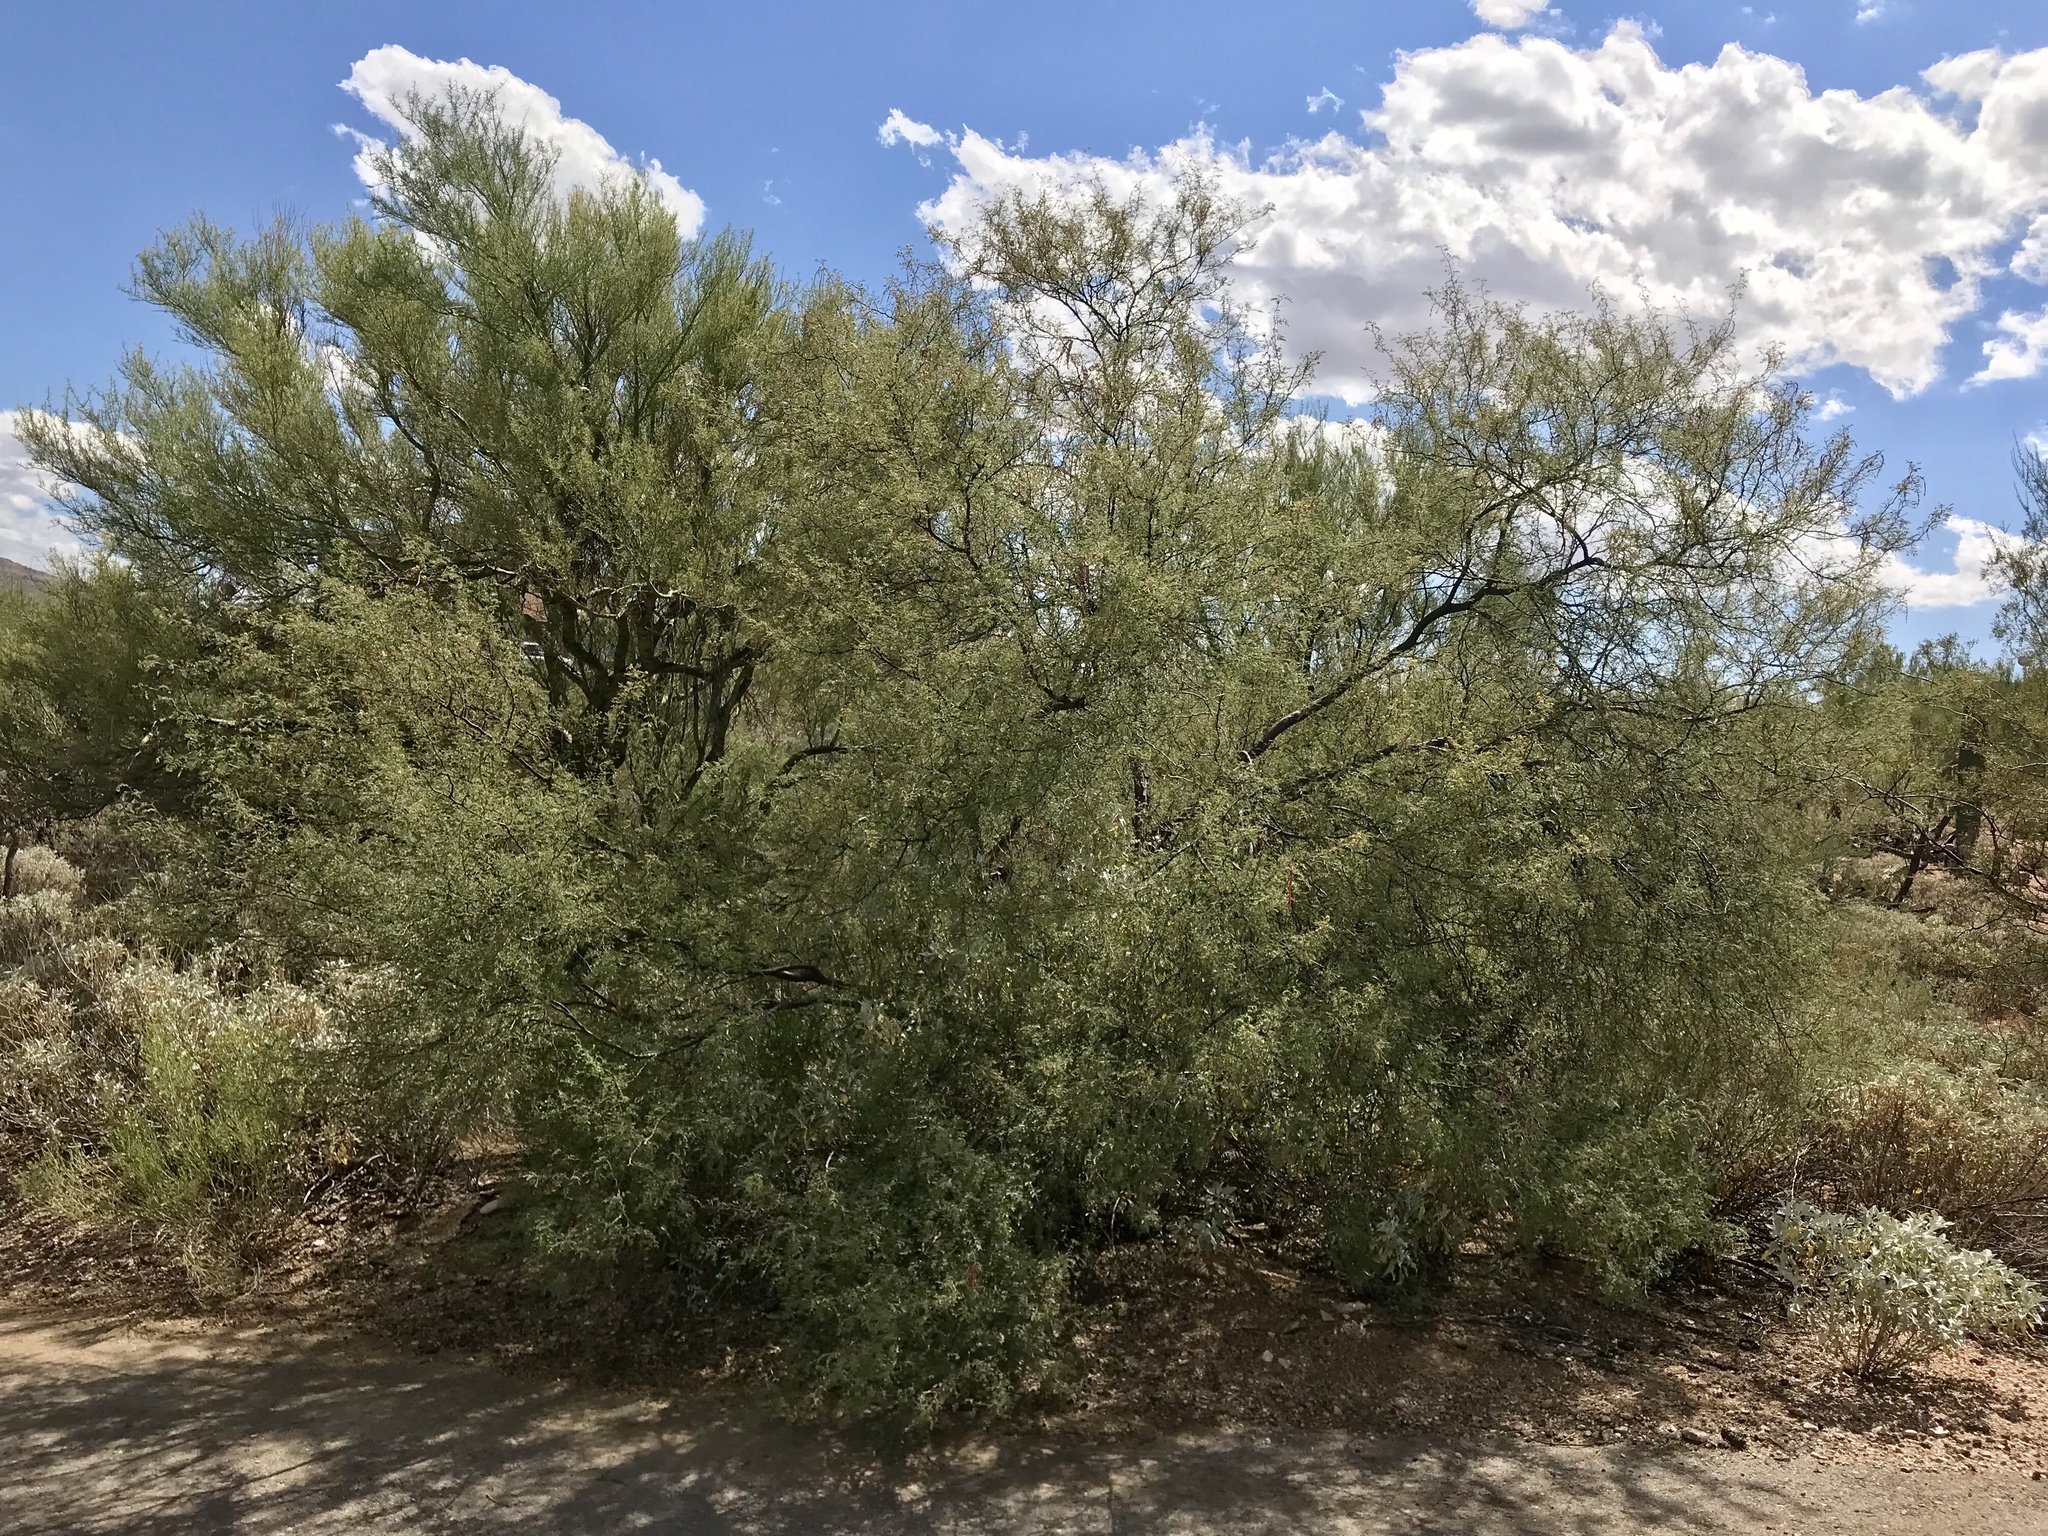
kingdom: Plantae
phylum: Tracheophyta
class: Magnoliopsida
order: Fabales
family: Fabaceae
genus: Senegalia
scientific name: Senegalia greggii
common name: Texas-mimosa
